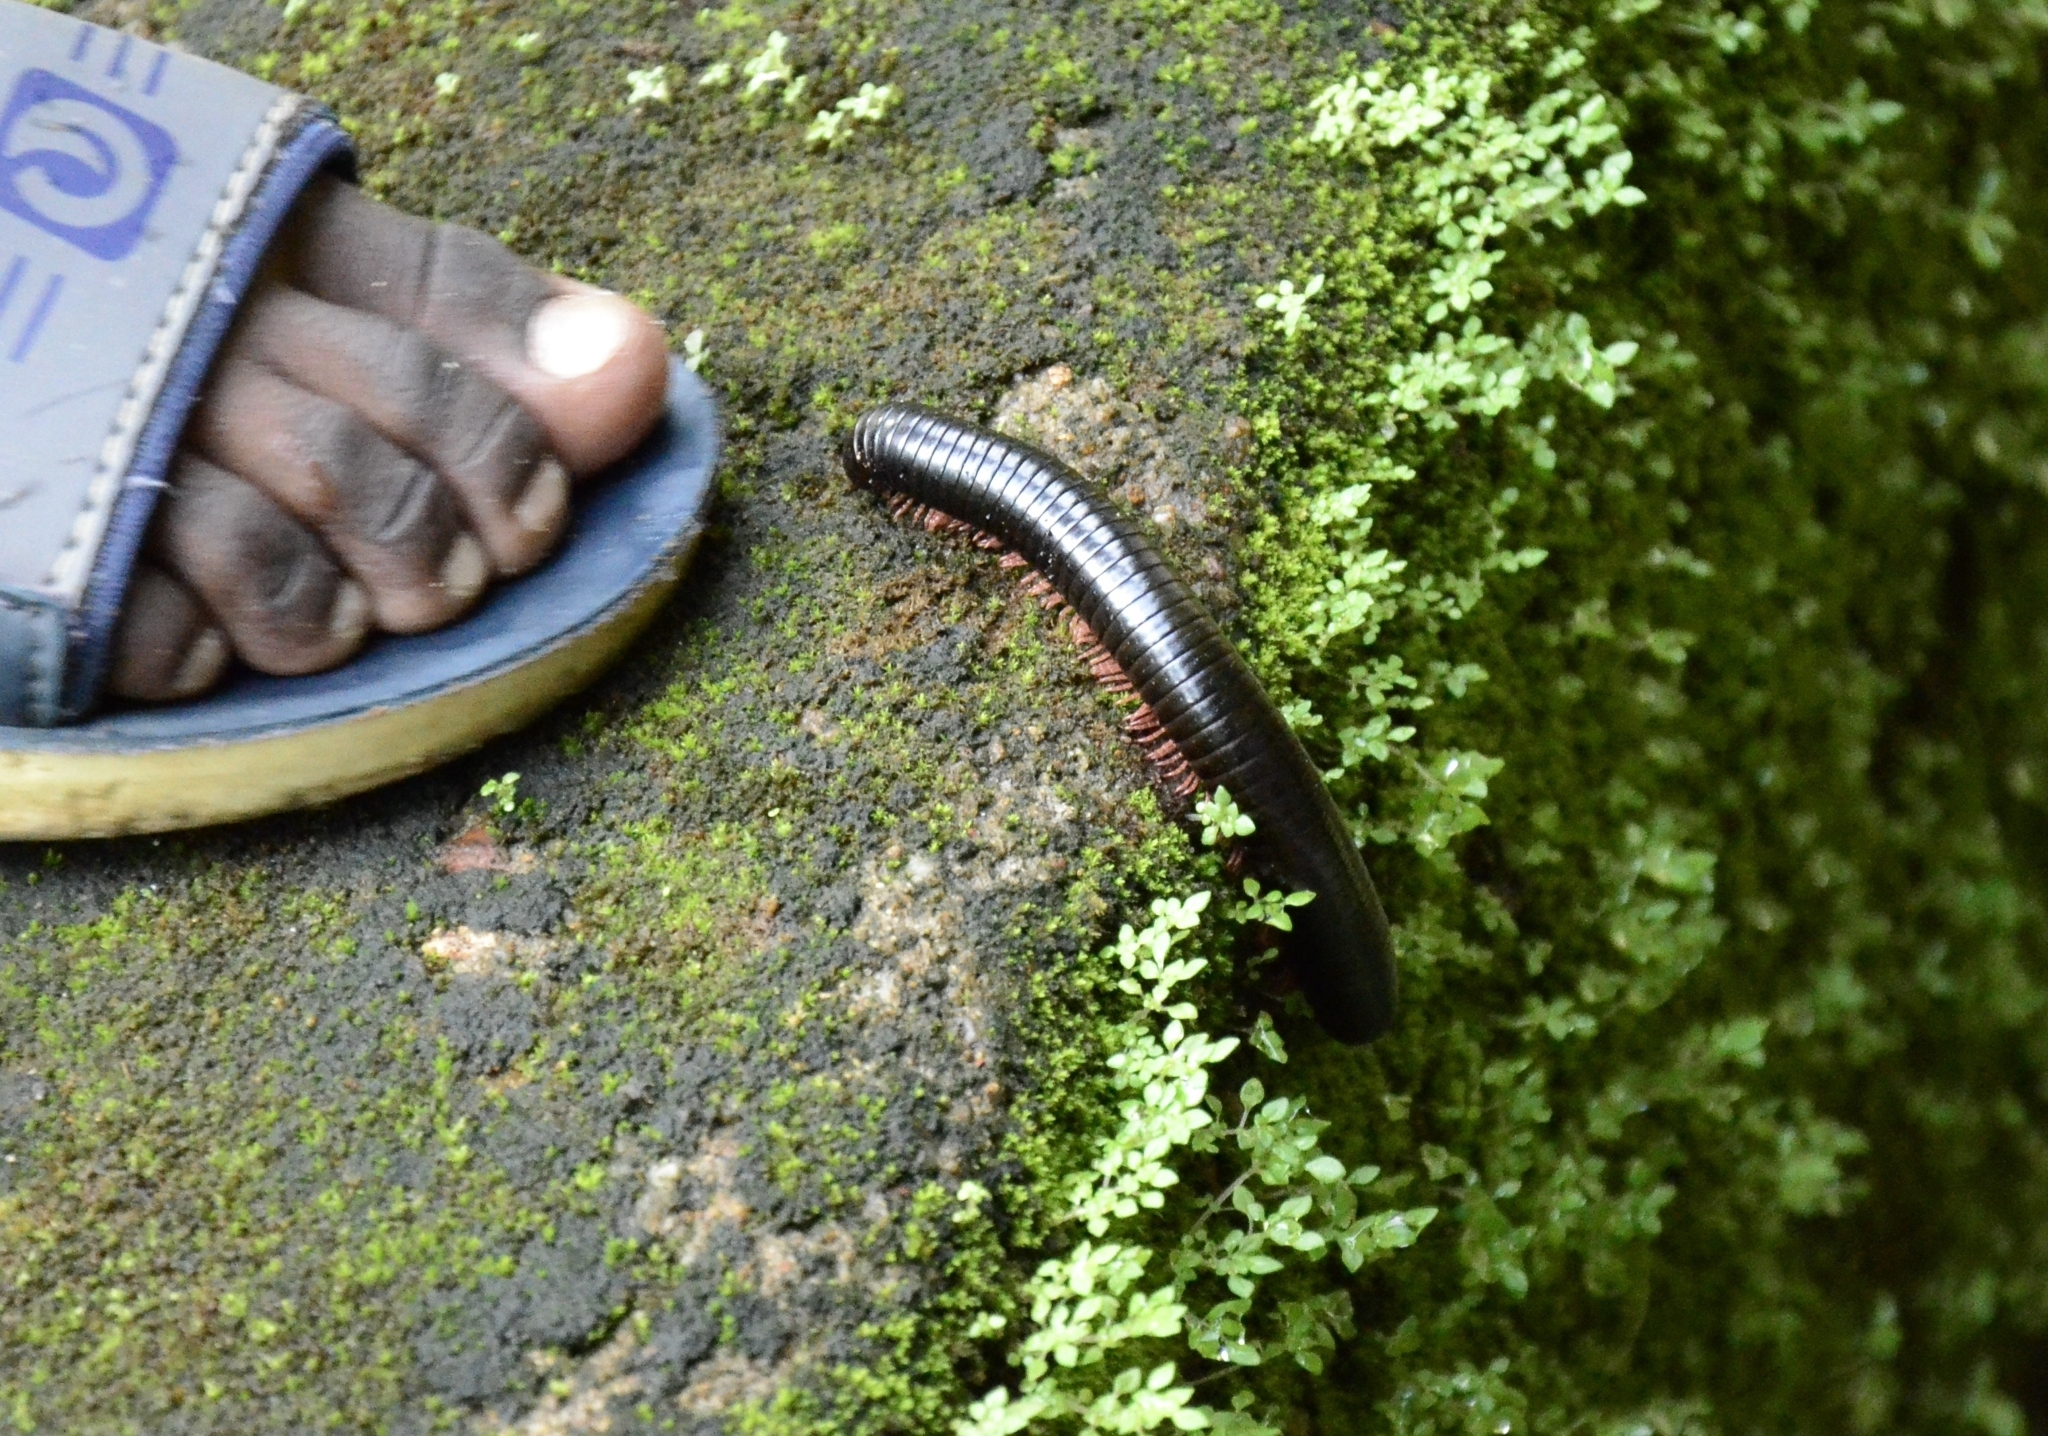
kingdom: Animalia
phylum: Arthropoda
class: Diplopoda
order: Spirostreptida
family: Harpagophoridae
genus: Phyllogonostreptus
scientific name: Phyllogonostreptus nigrolabiatus
